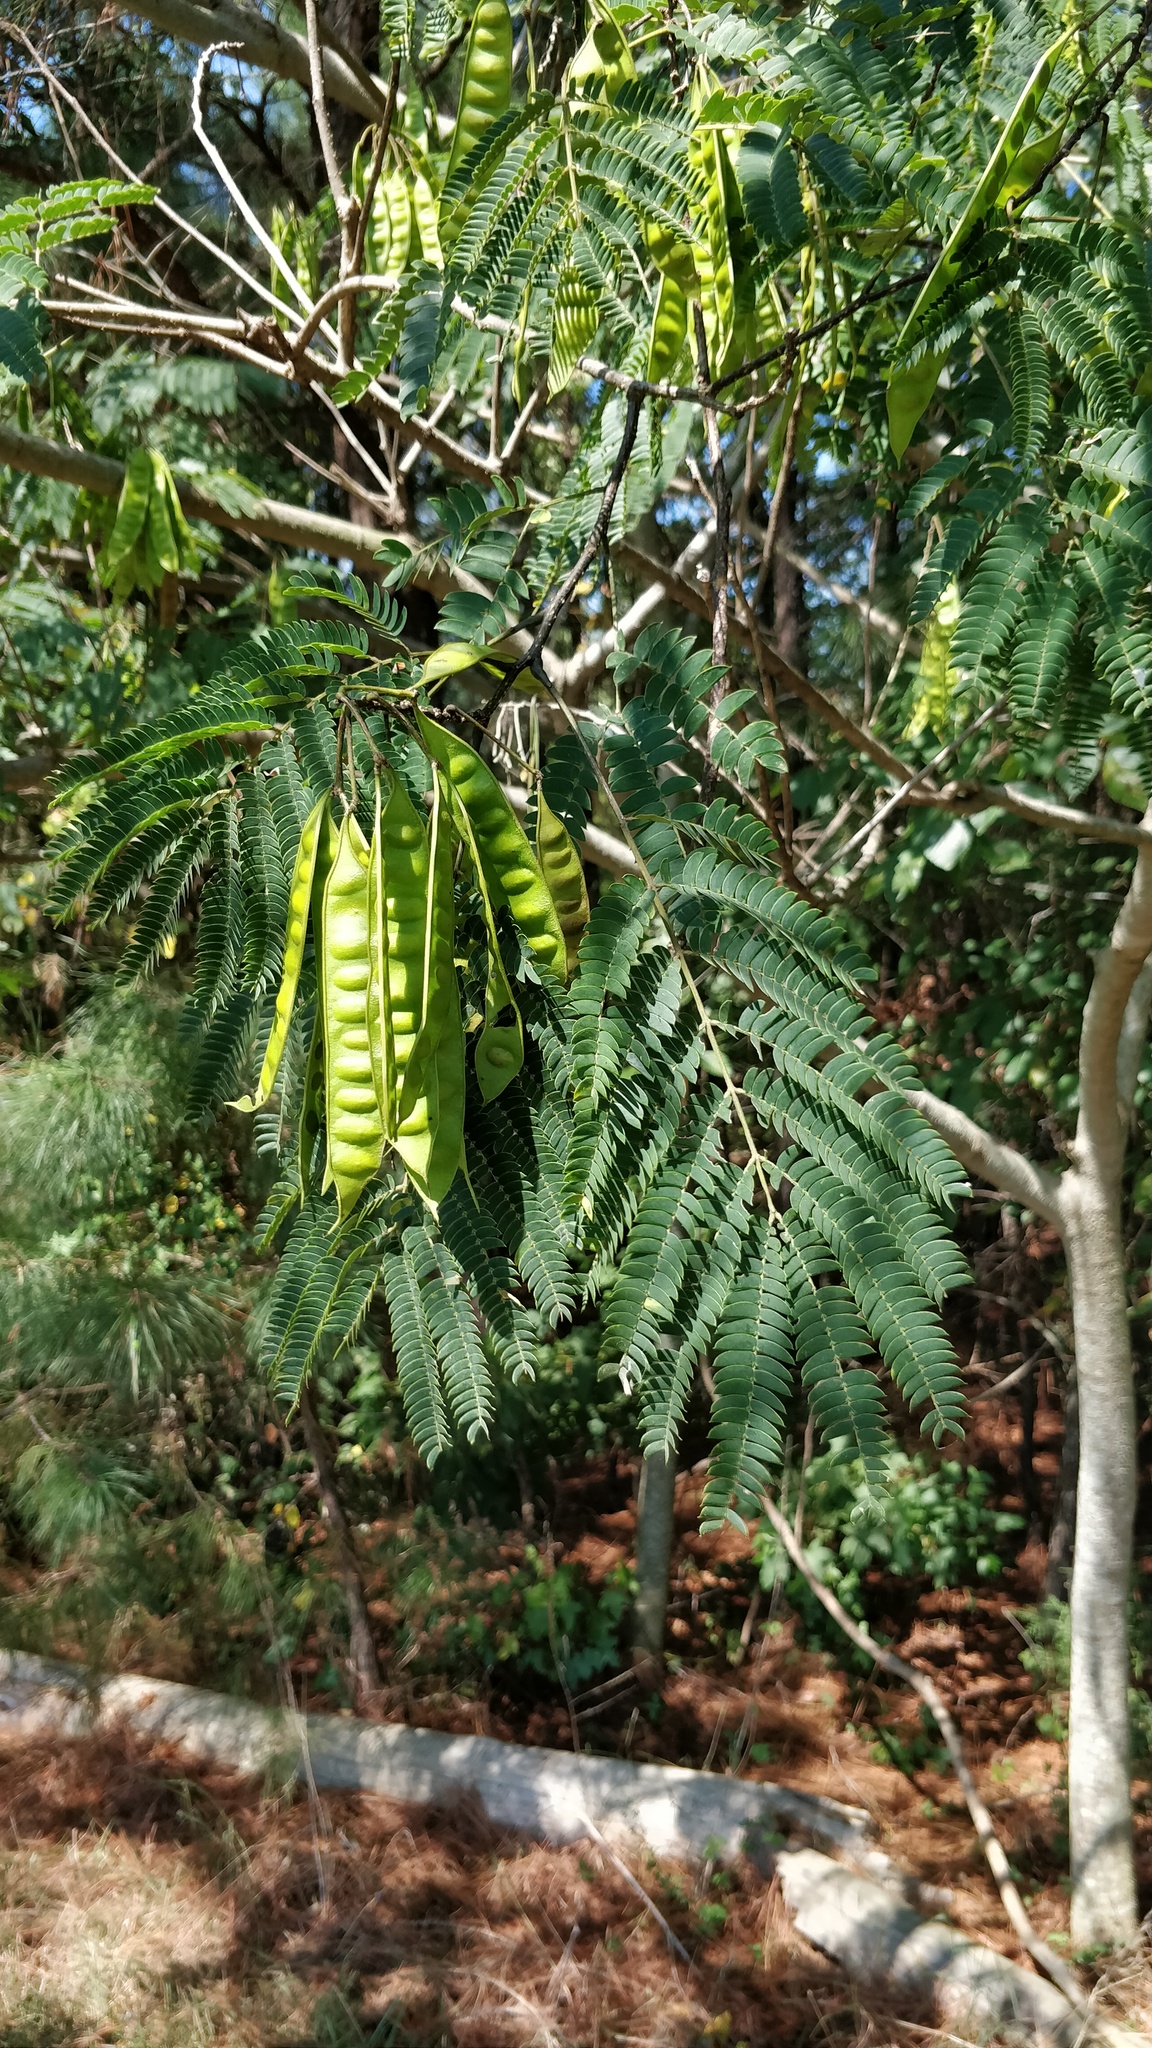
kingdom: Plantae
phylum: Tracheophyta
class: Magnoliopsida
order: Fabales
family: Fabaceae
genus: Albizia
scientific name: Albizia julibrissin
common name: Silktree
